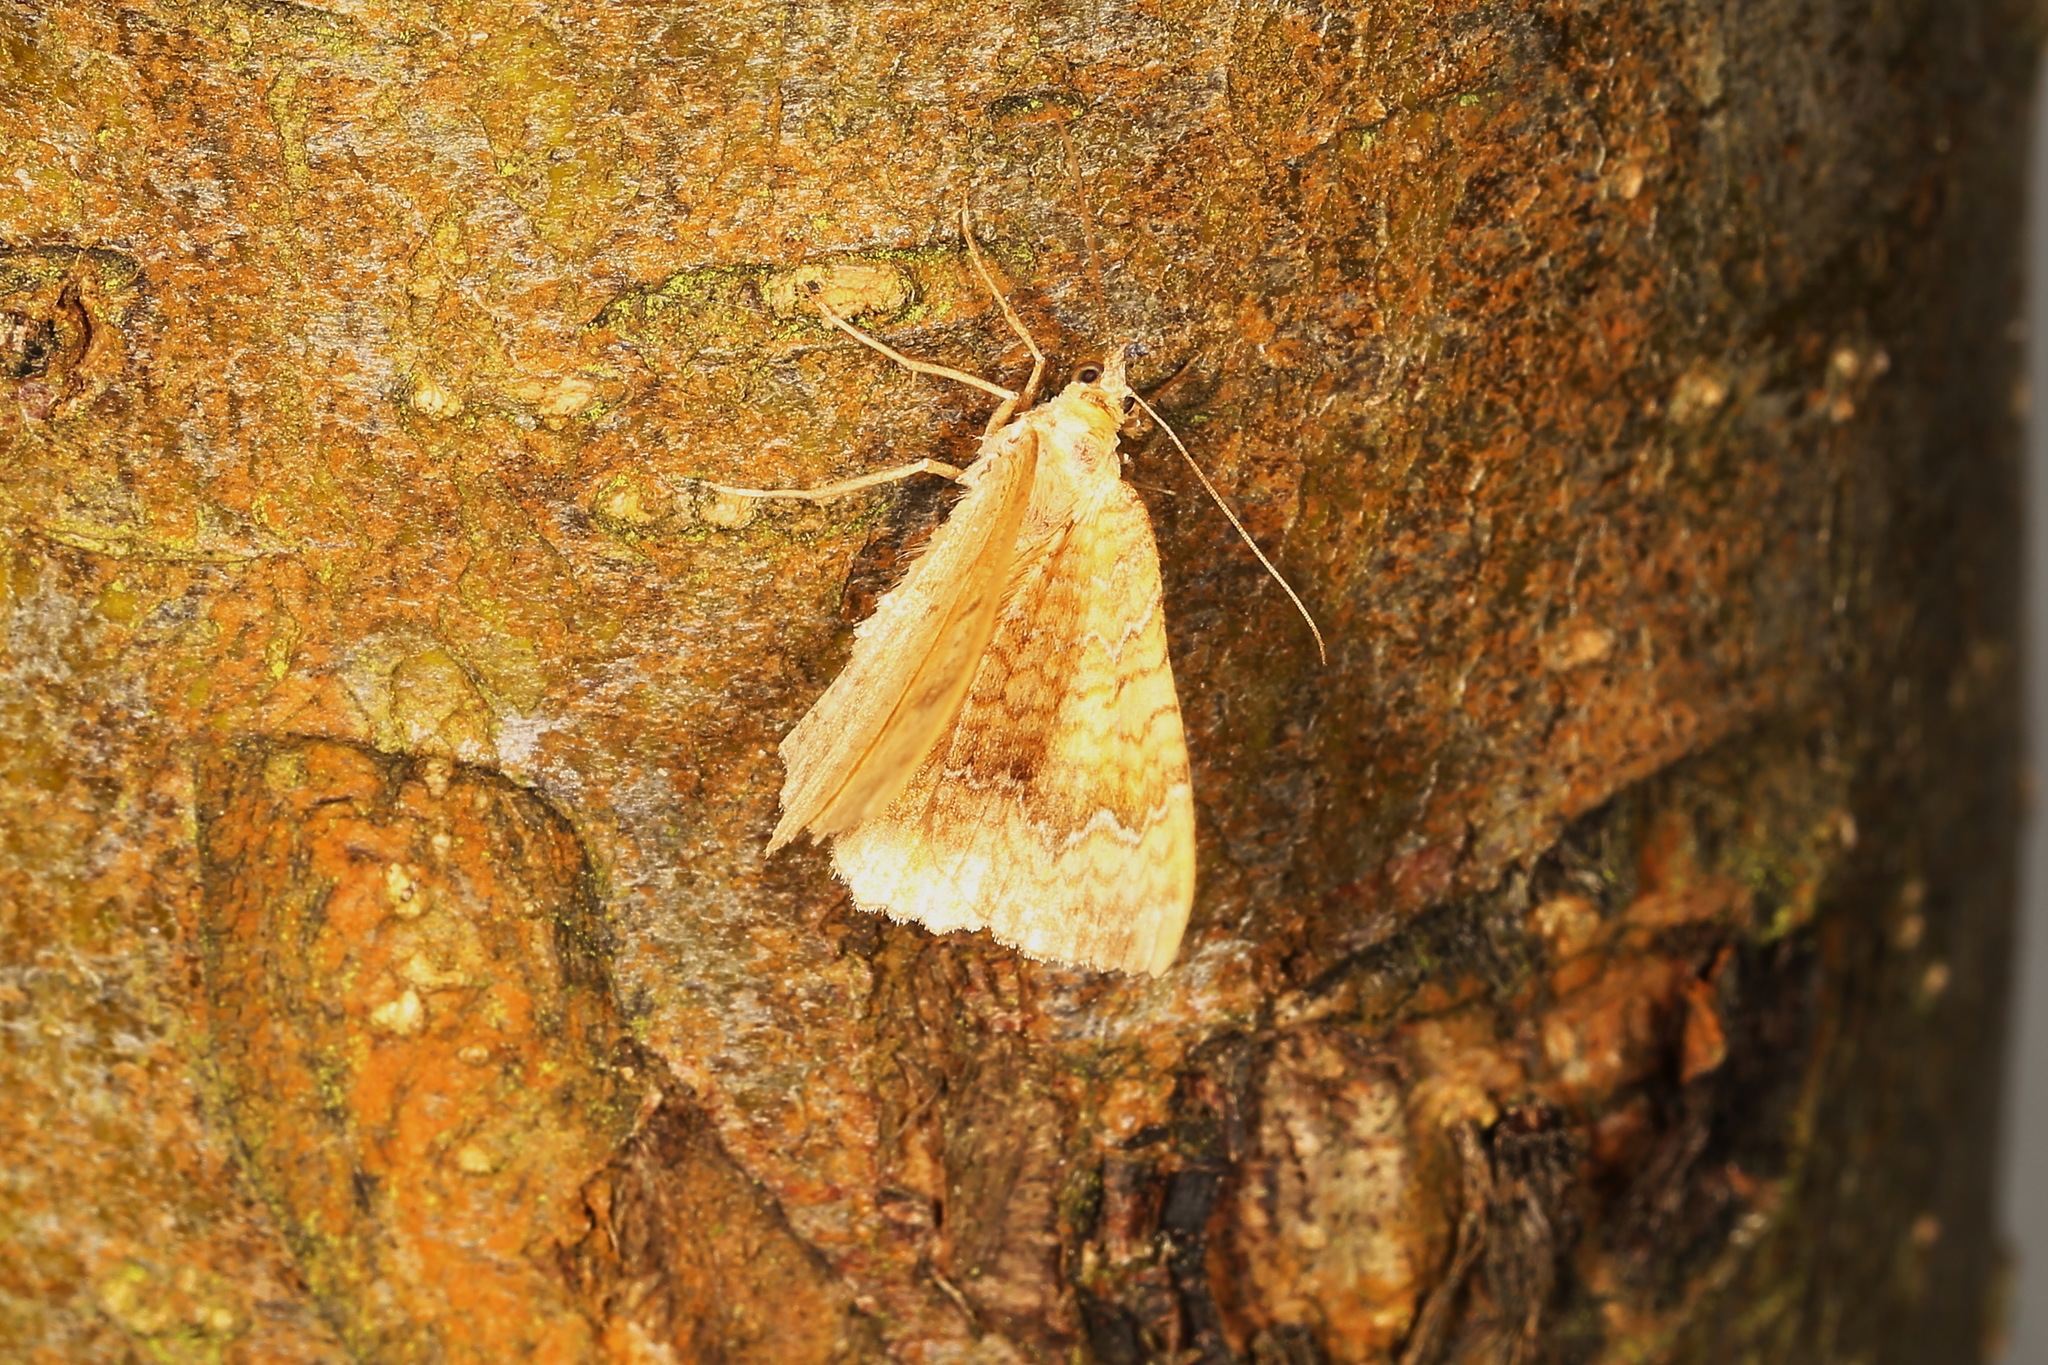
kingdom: Animalia
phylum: Arthropoda
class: Insecta
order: Lepidoptera
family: Geometridae
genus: Camptogramma
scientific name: Camptogramma bilineata
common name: Yellow shell
